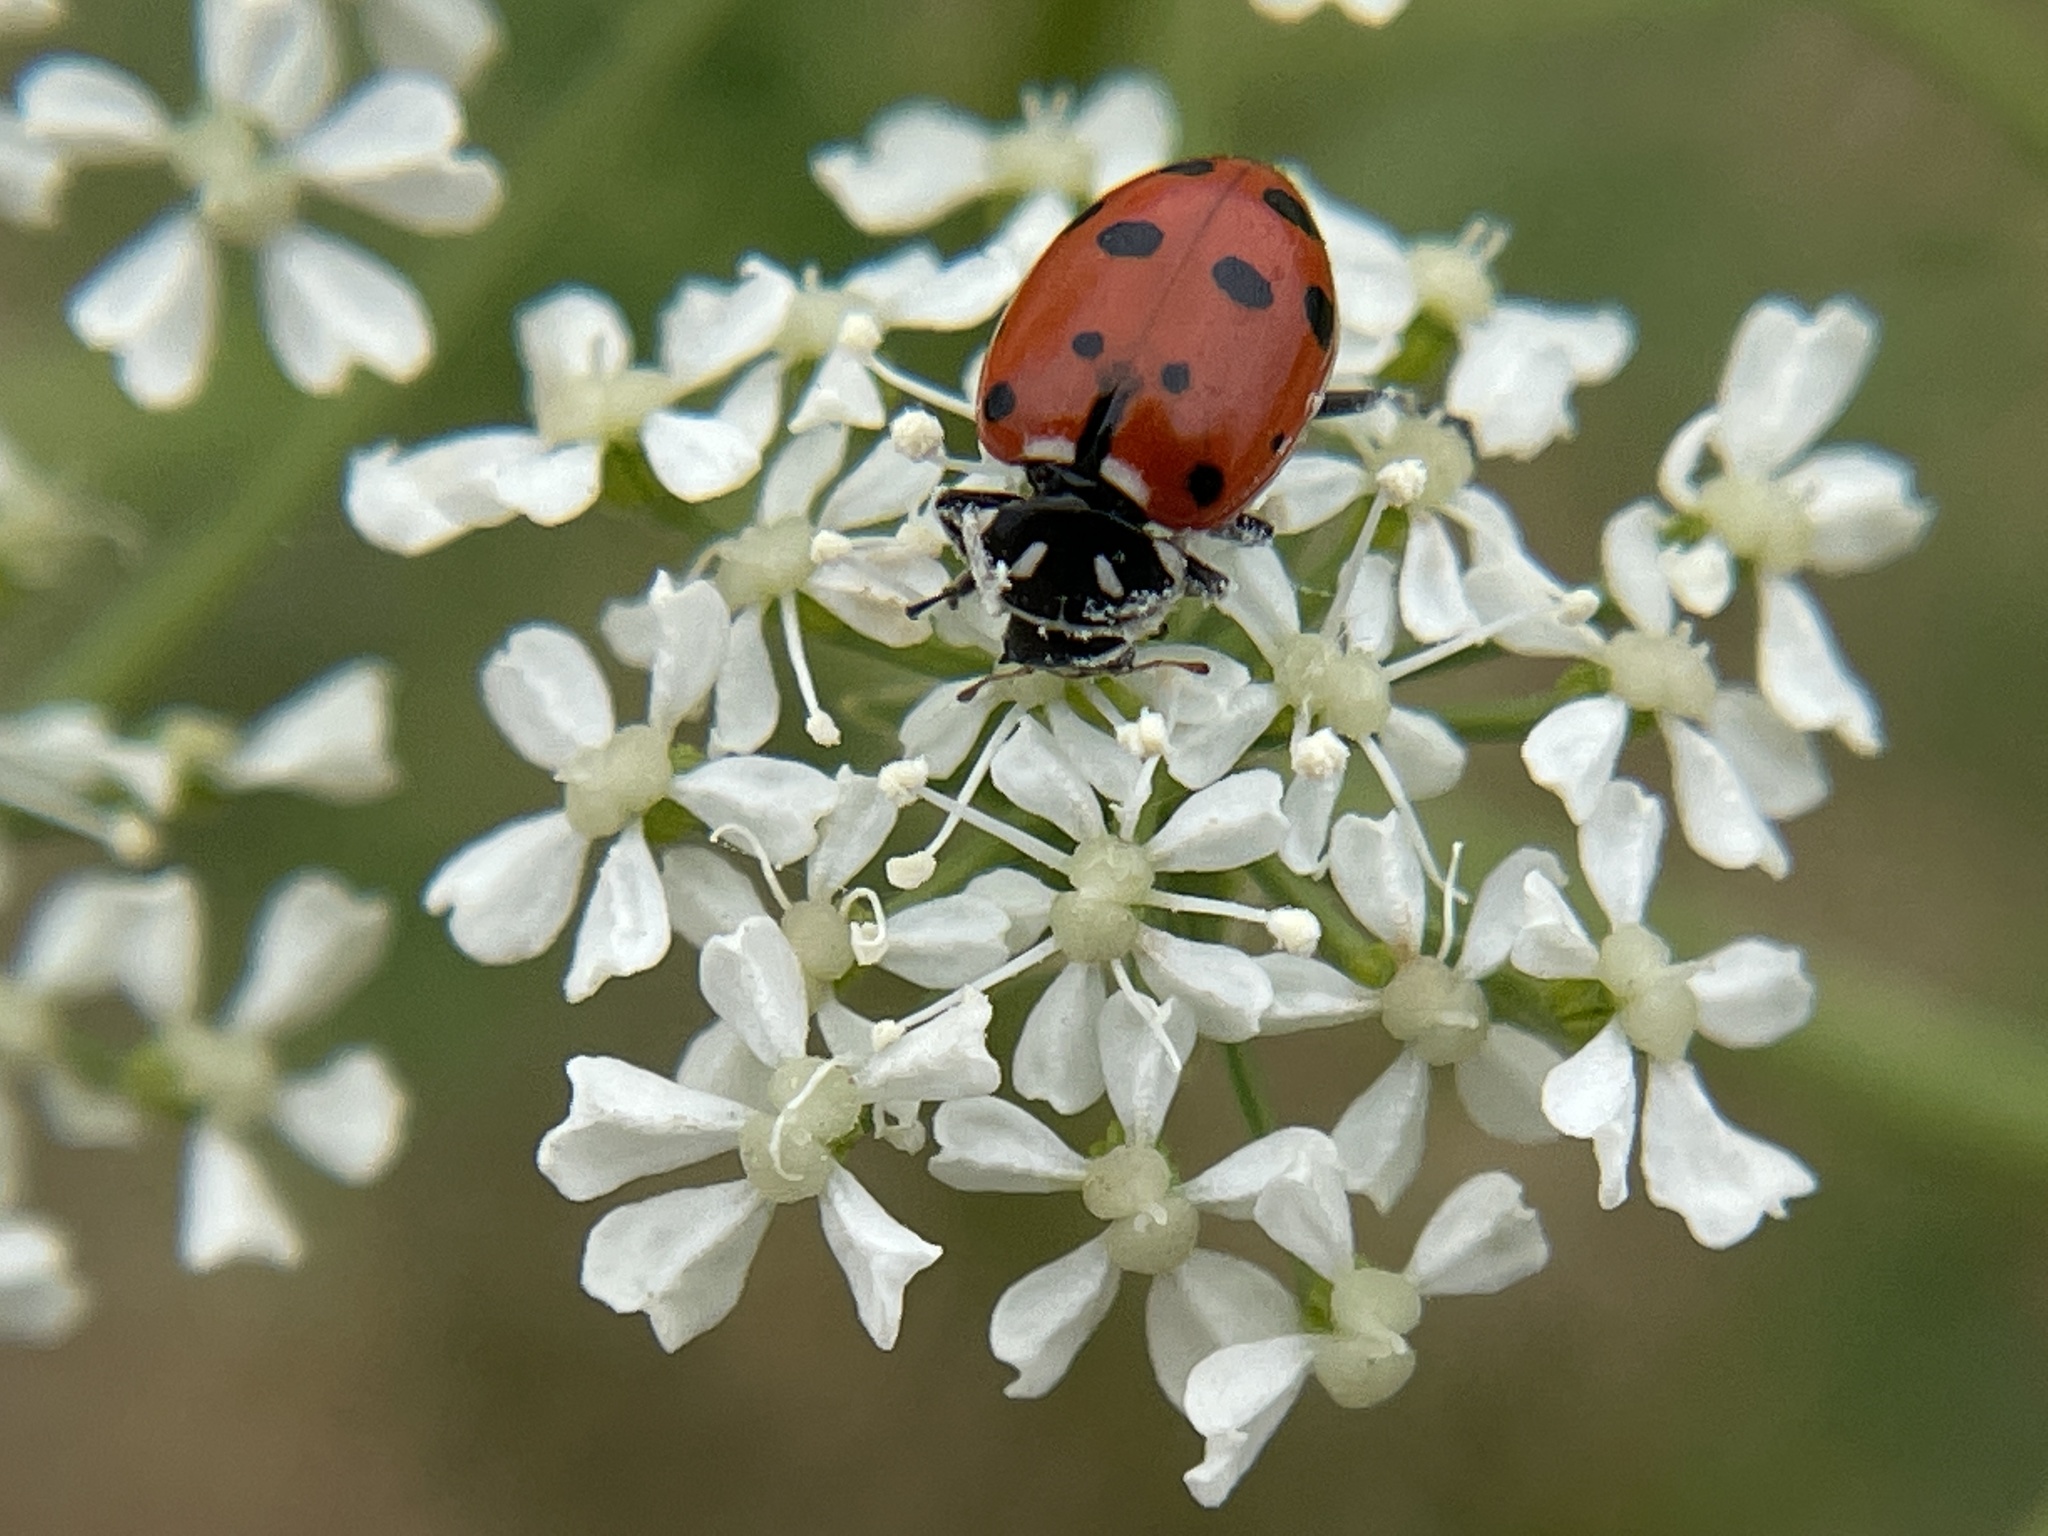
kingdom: Animalia
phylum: Arthropoda
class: Insecta
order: Coleoptera
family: Coccinellidae
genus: Hippodamia
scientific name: Hippodamia convergens
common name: Convergent lady beetle
